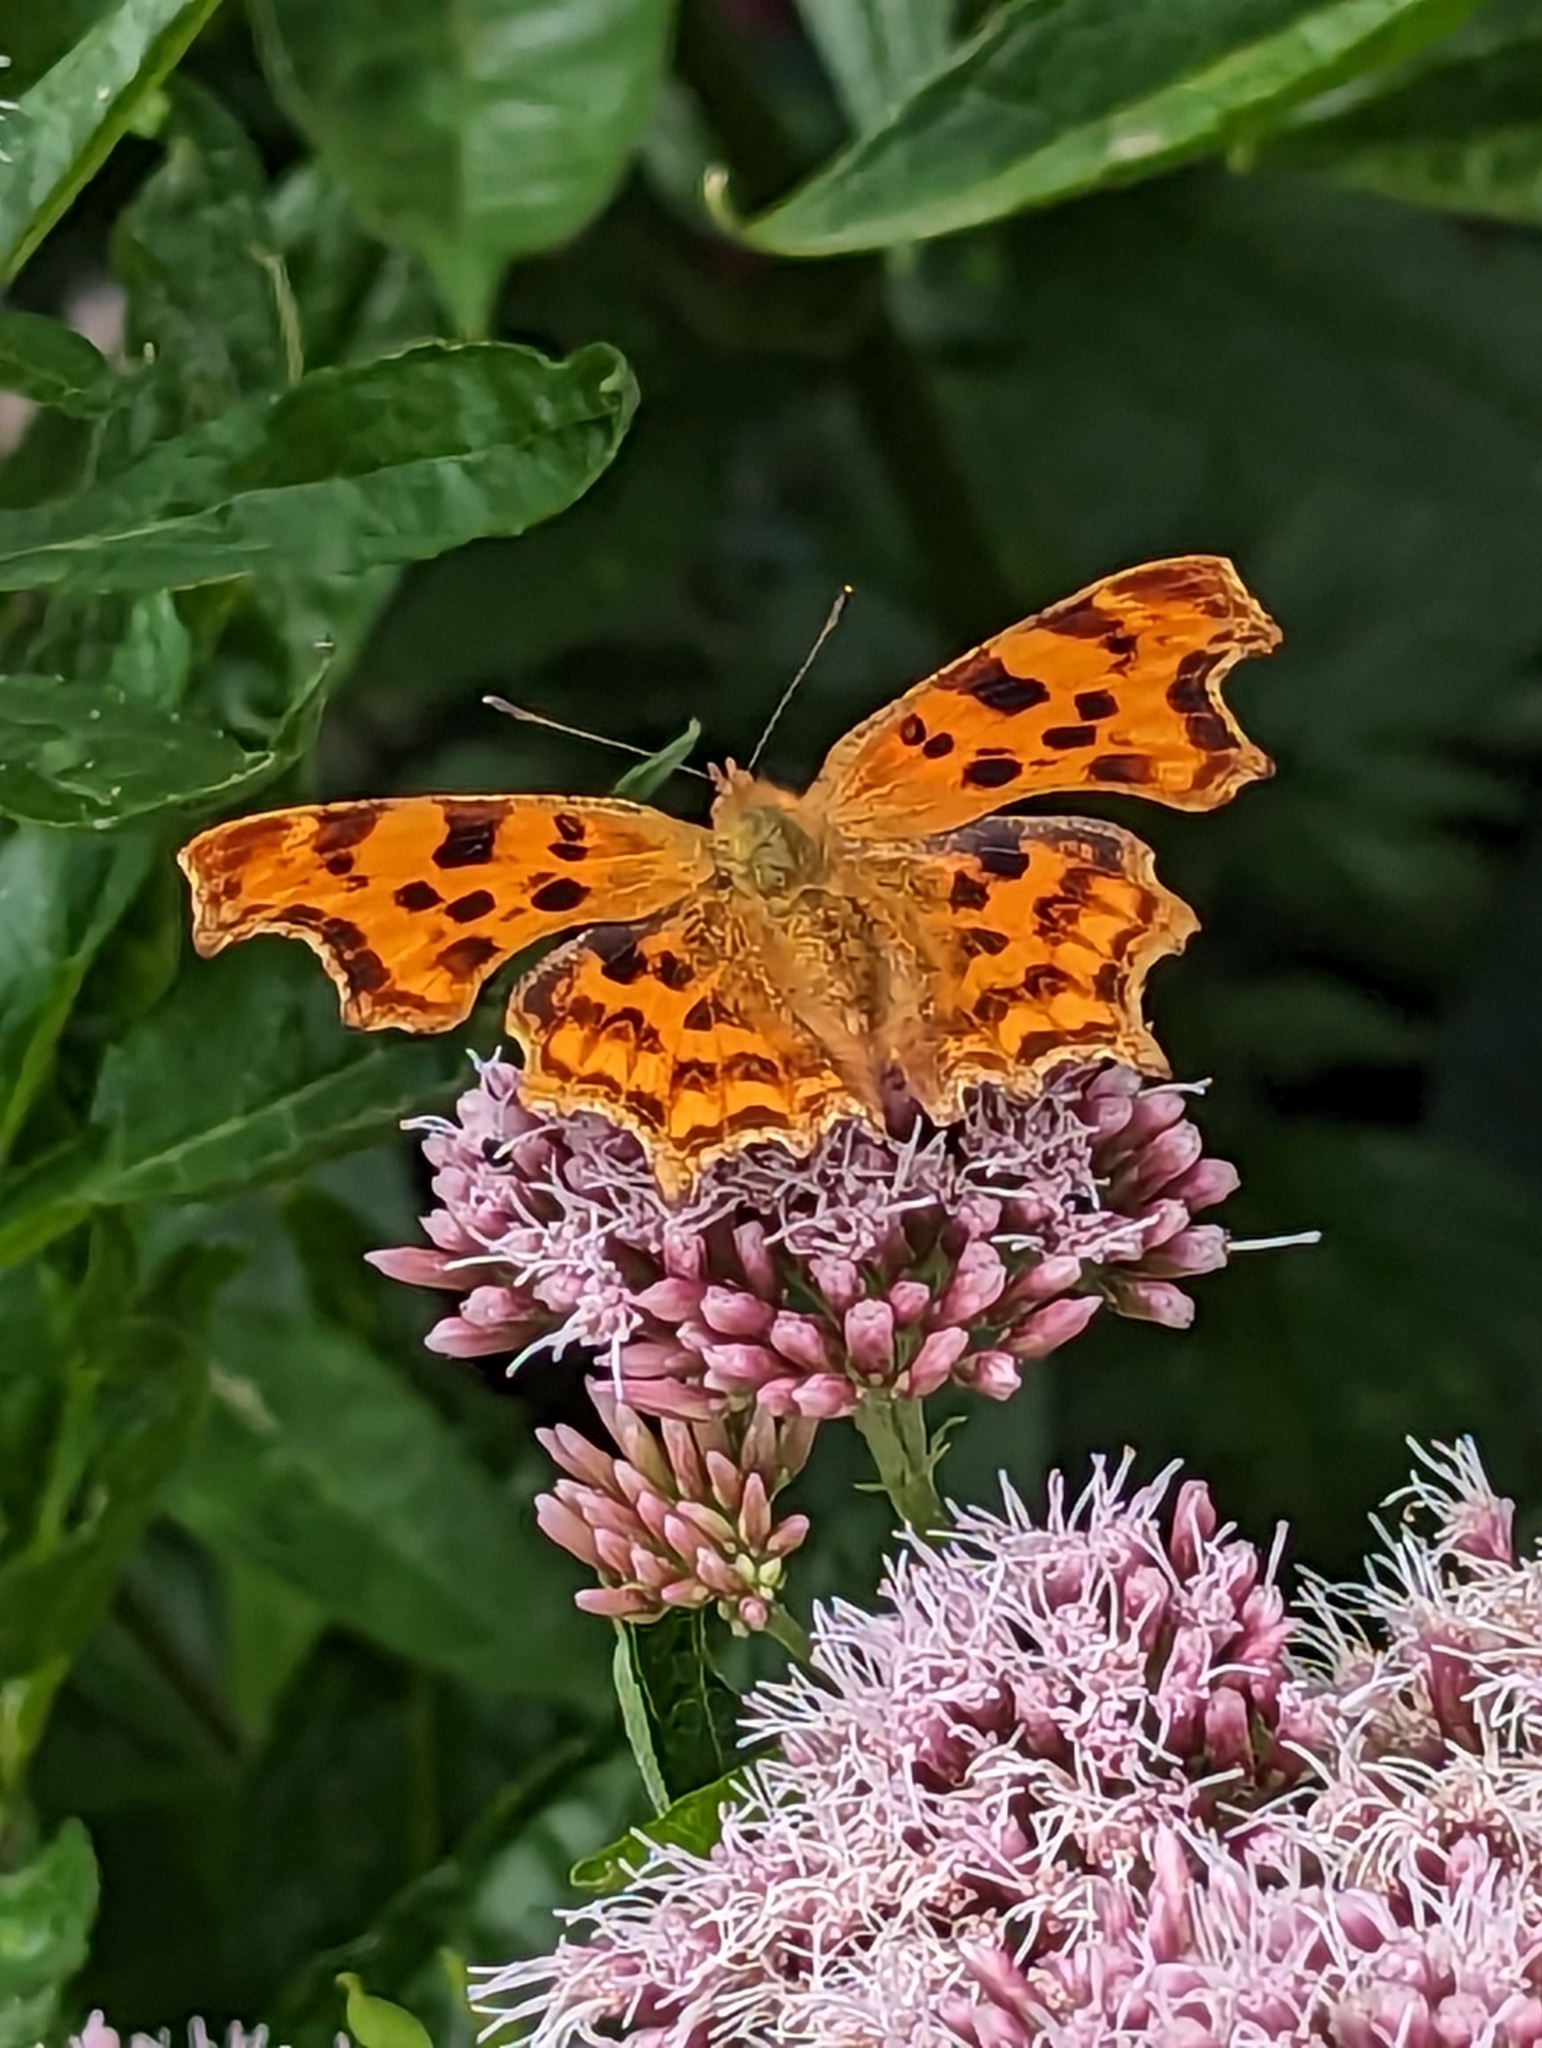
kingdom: Animalia
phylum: Arthropoda
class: Insecta
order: Lepidoptera
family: Nymphalidae
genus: Polygonia
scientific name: Polygonia c-album
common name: Comma
